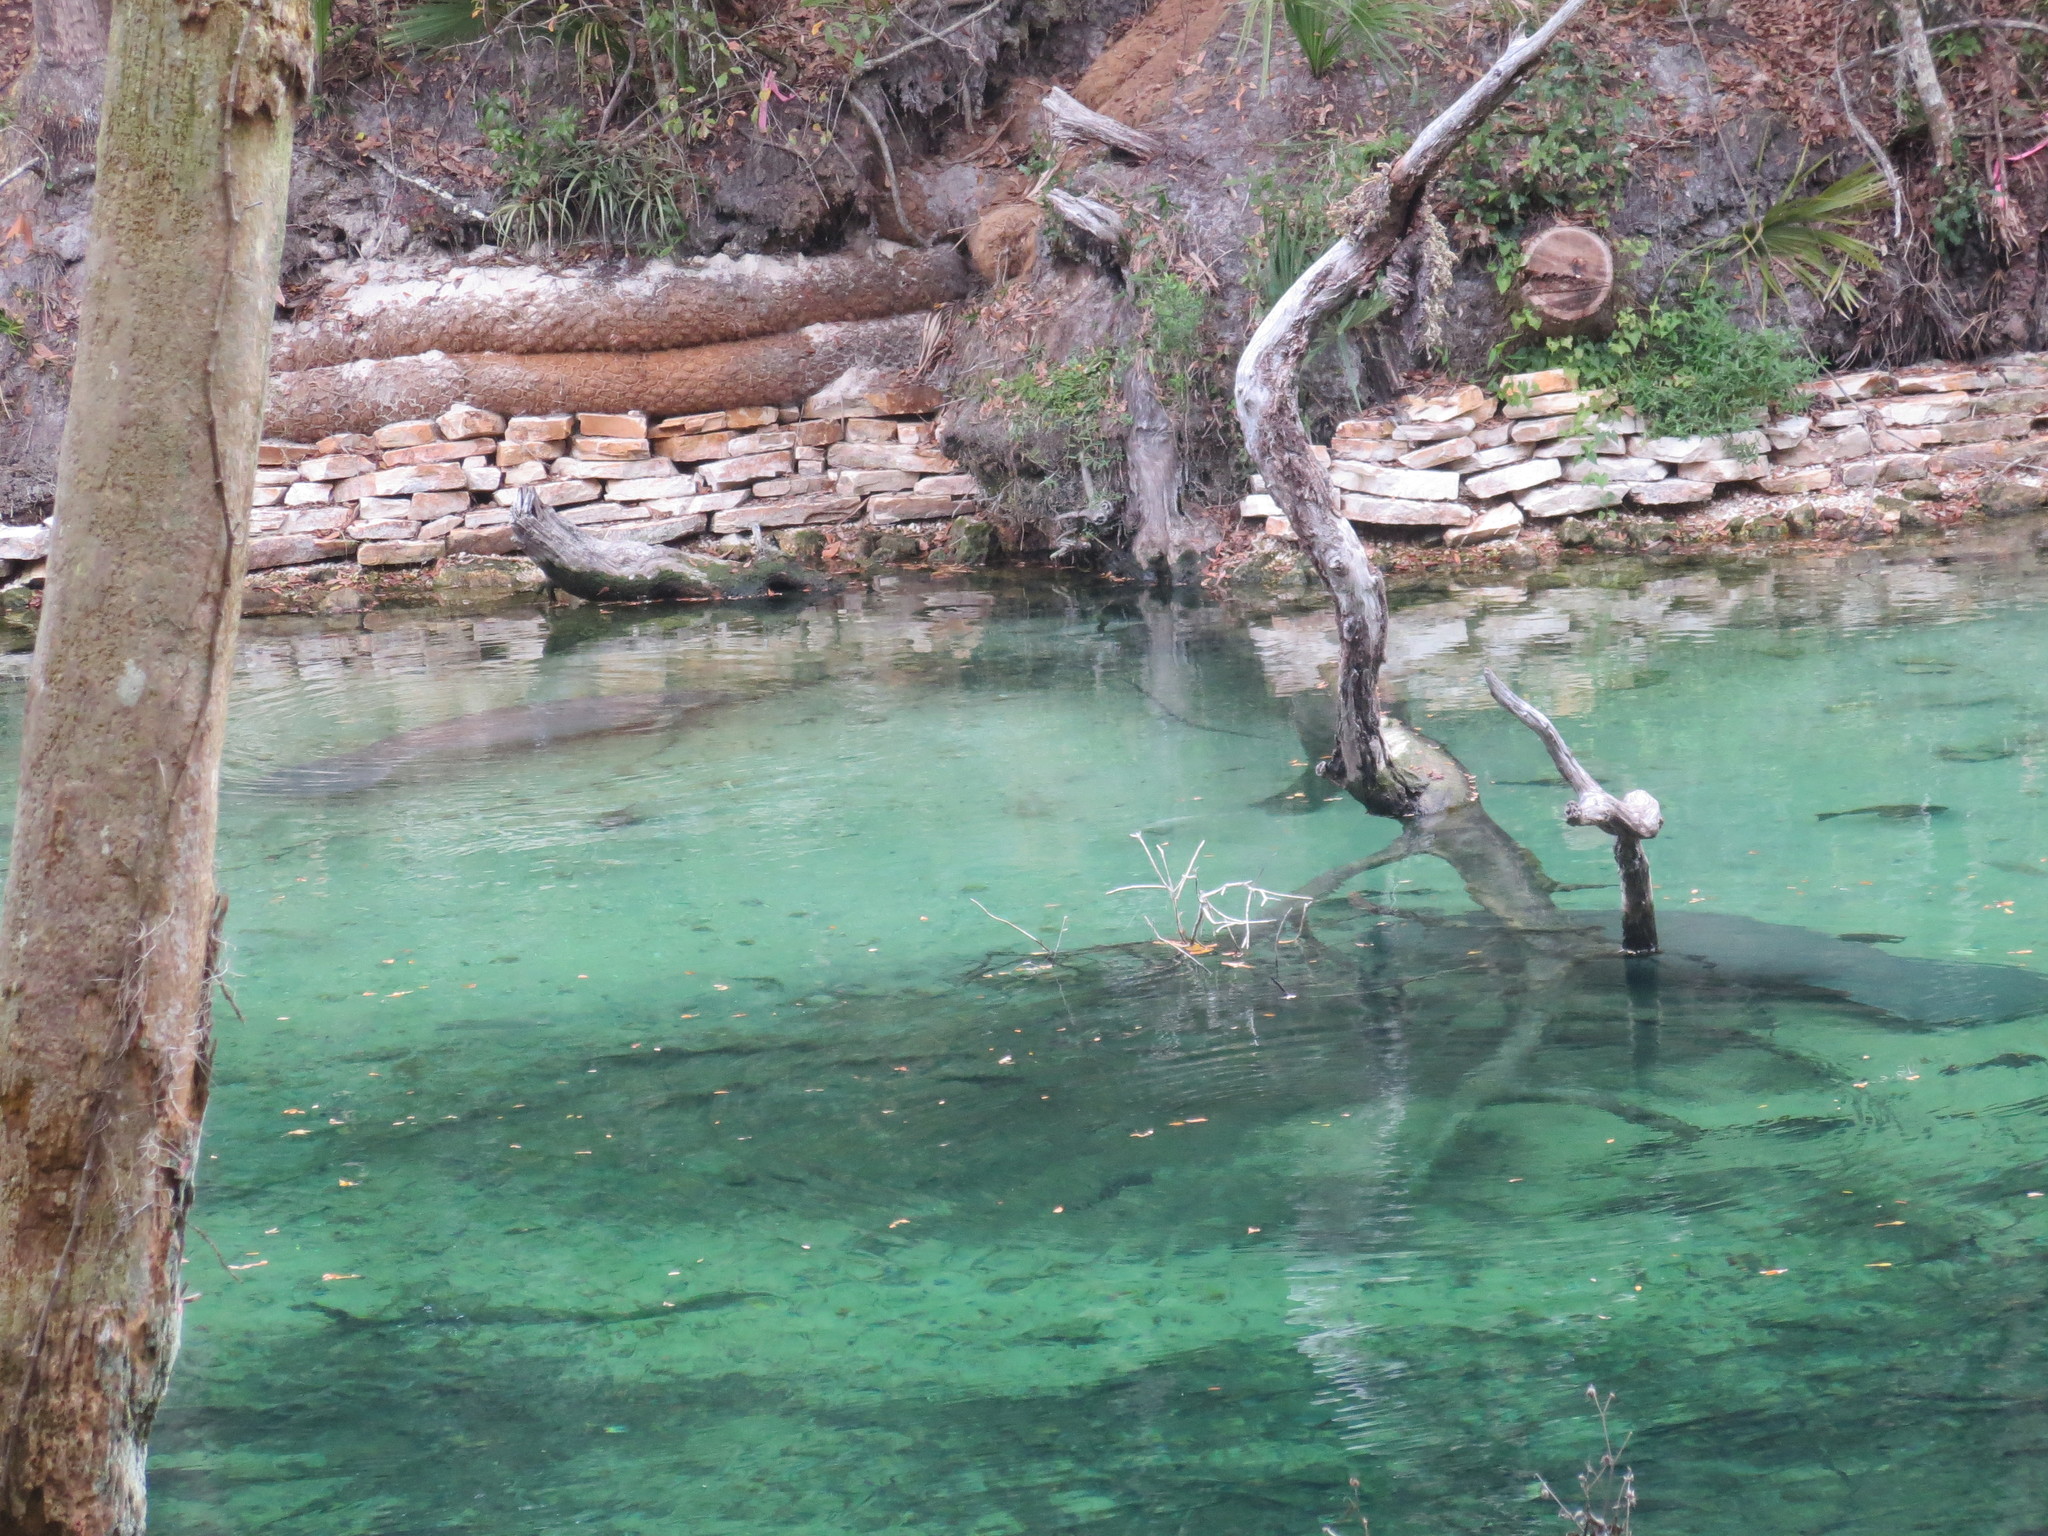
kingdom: Animalia
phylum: Chordata
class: Mammalia
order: Sirenia
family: Trichechidae
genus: Trichechus
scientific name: Trichechus manatus
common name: West indian manatee
